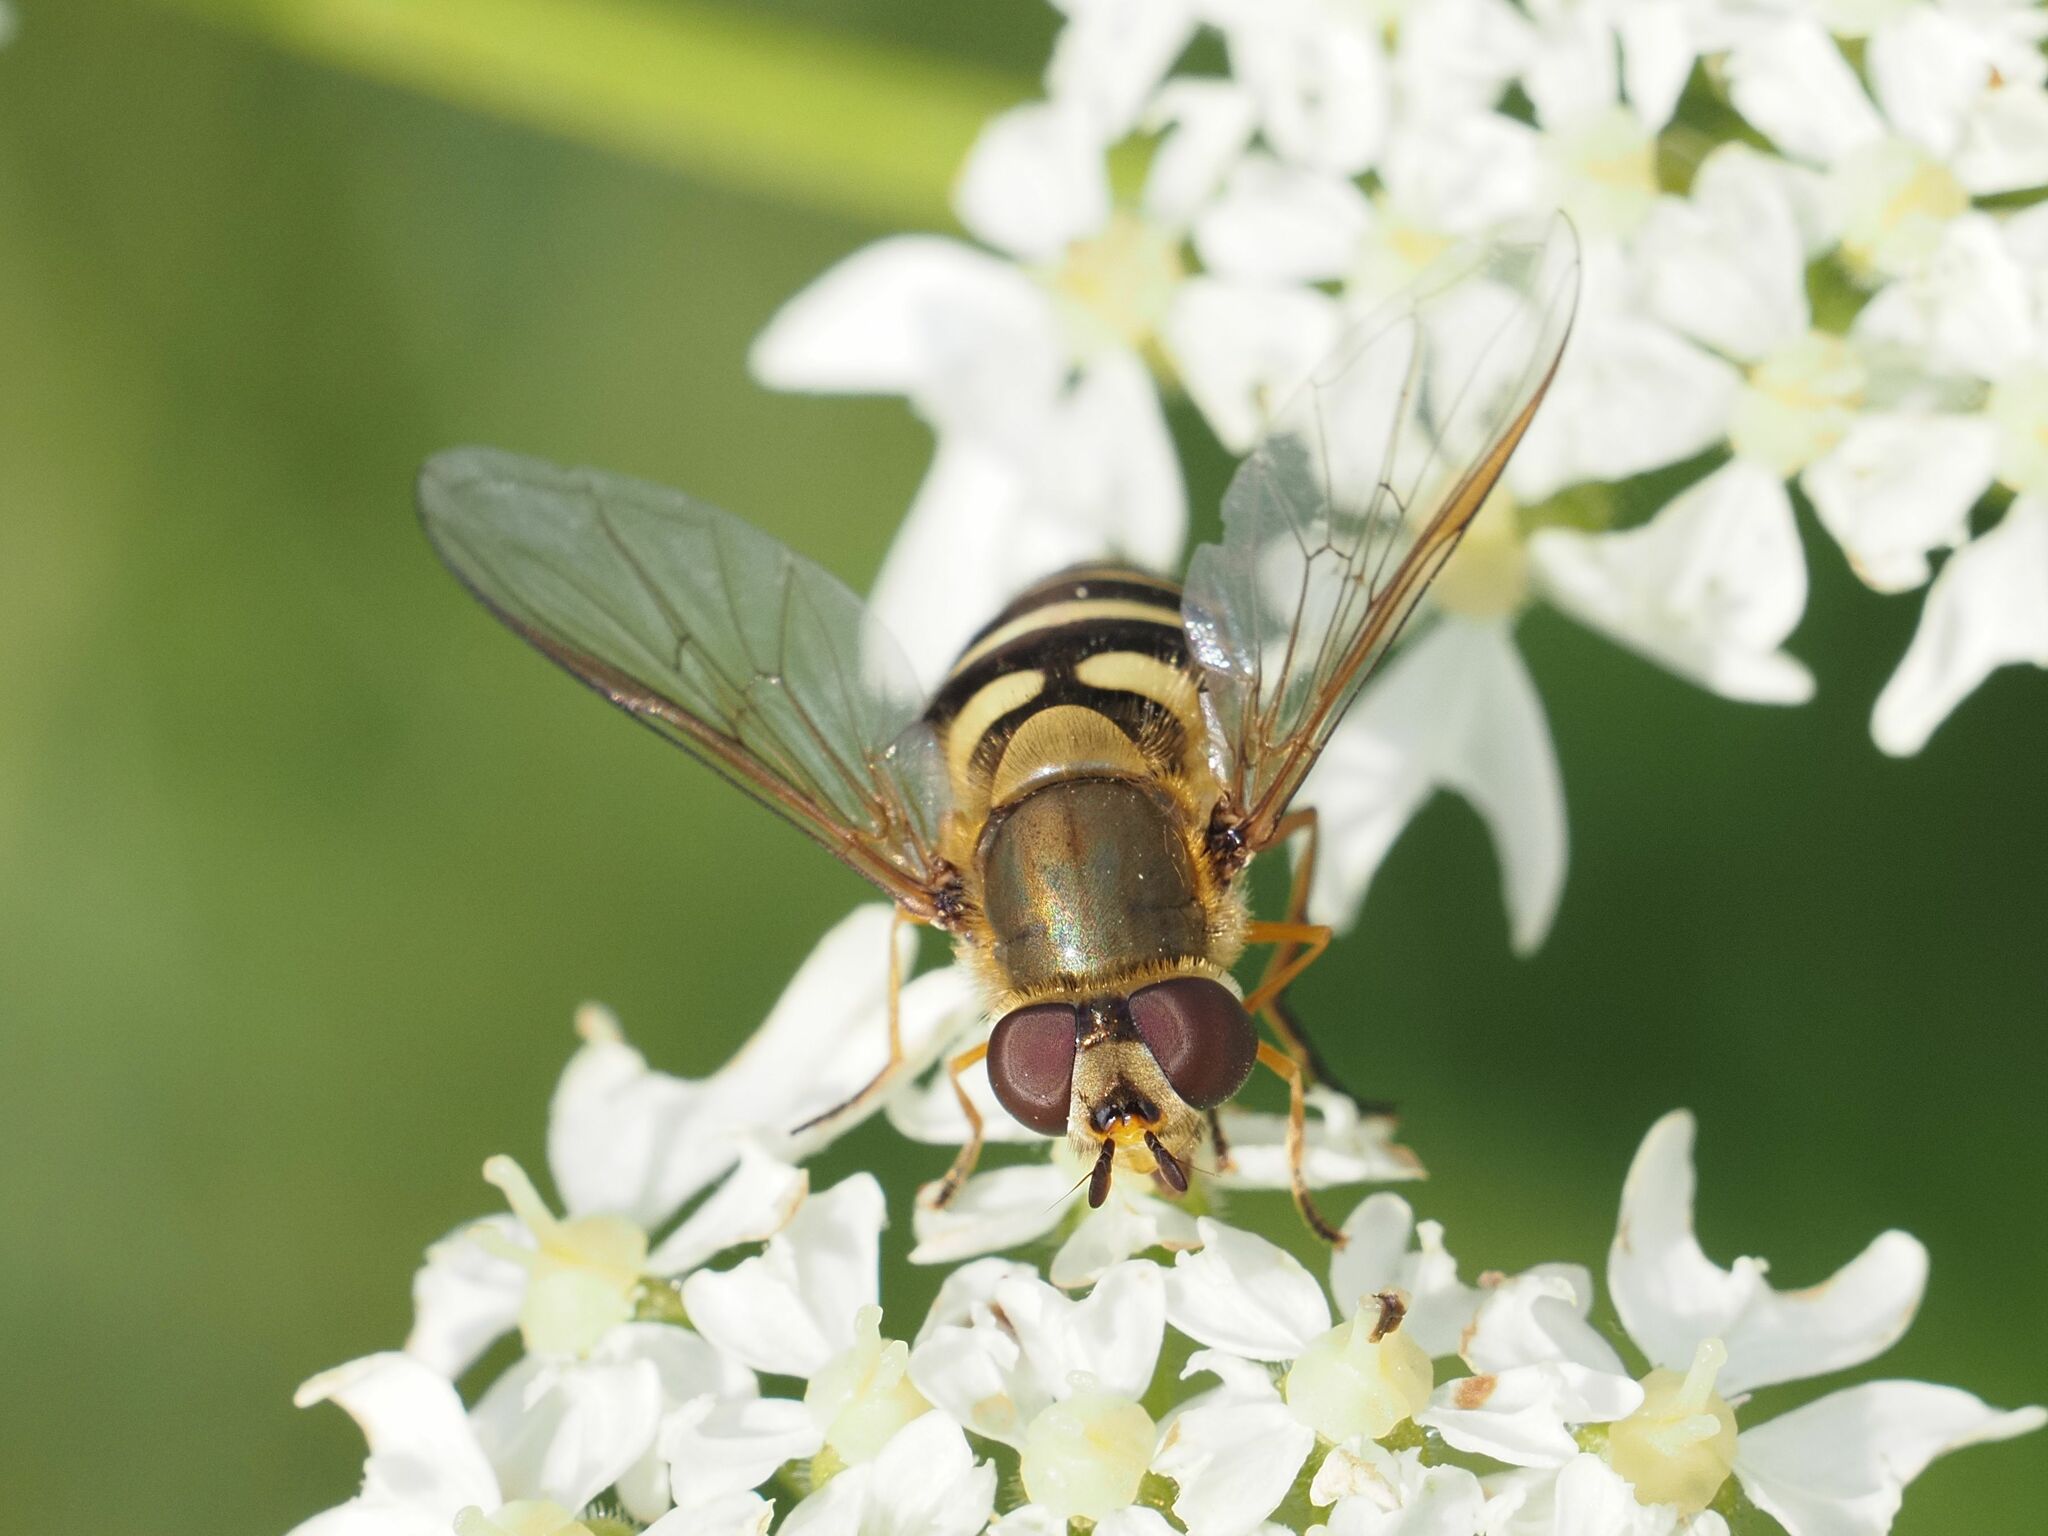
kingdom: Animalia
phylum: Arthropoda
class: Insecta
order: Diptera
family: Syrphidae
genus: Syrphus
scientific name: Syrphus torvus
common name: Hairy-eyed flower fly
